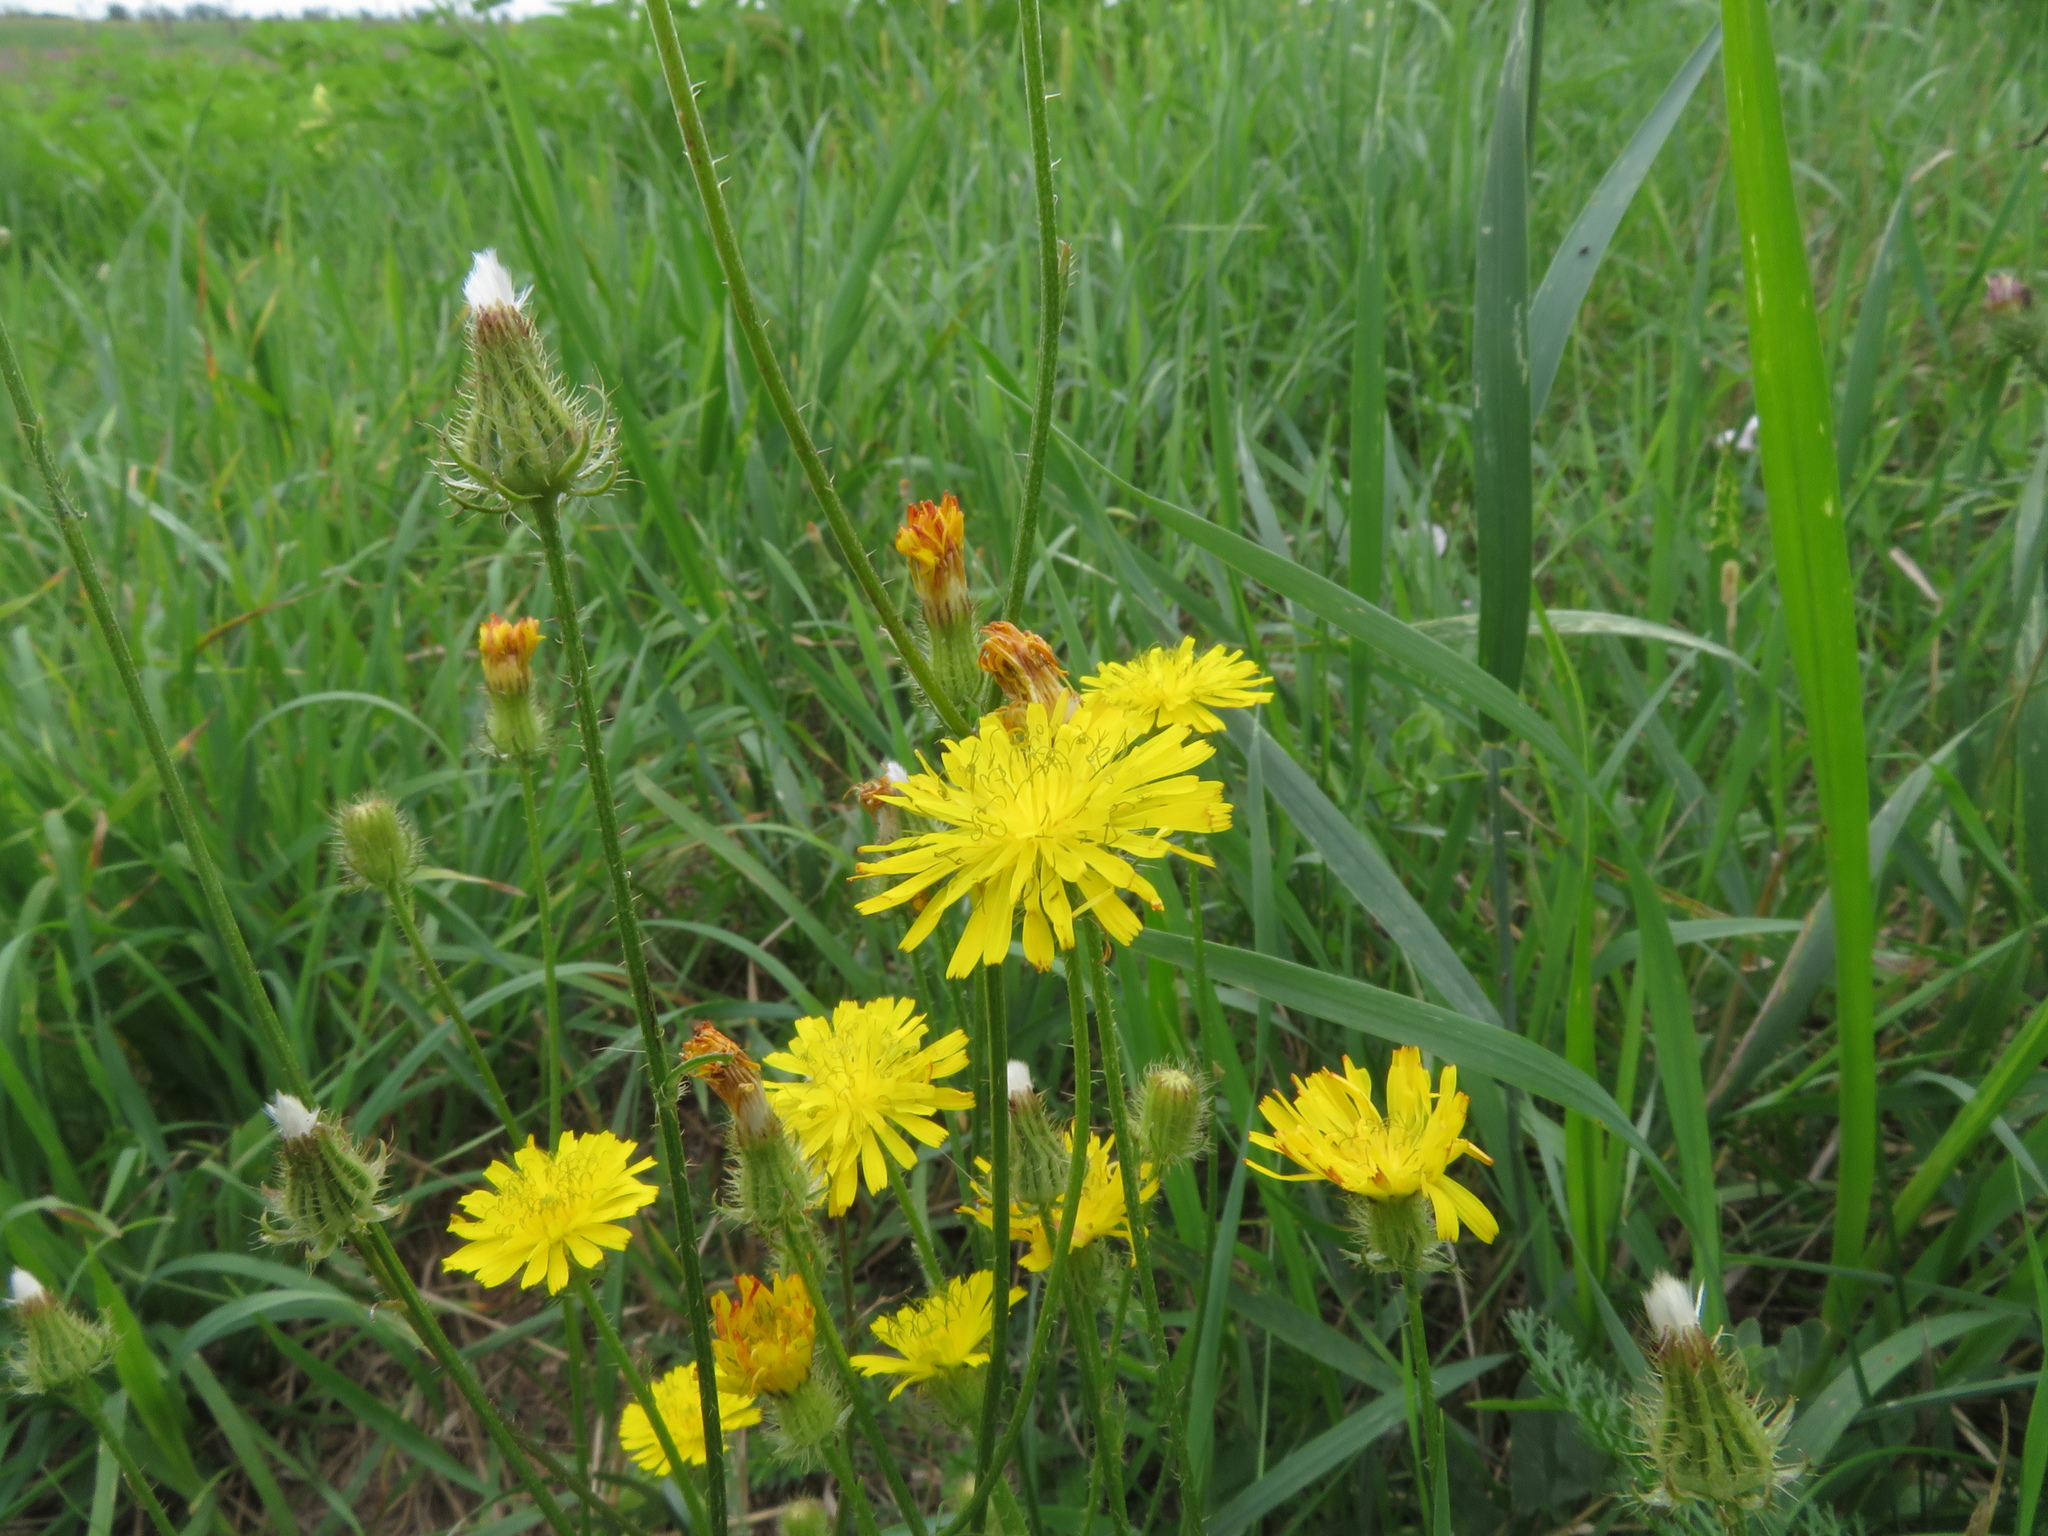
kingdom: Plantae
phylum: Tracheophyta
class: Magnoliopsida
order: Asterales
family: Asteraceae
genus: Crepis
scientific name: Crepis setosa
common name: Bristly hawk's-beard
